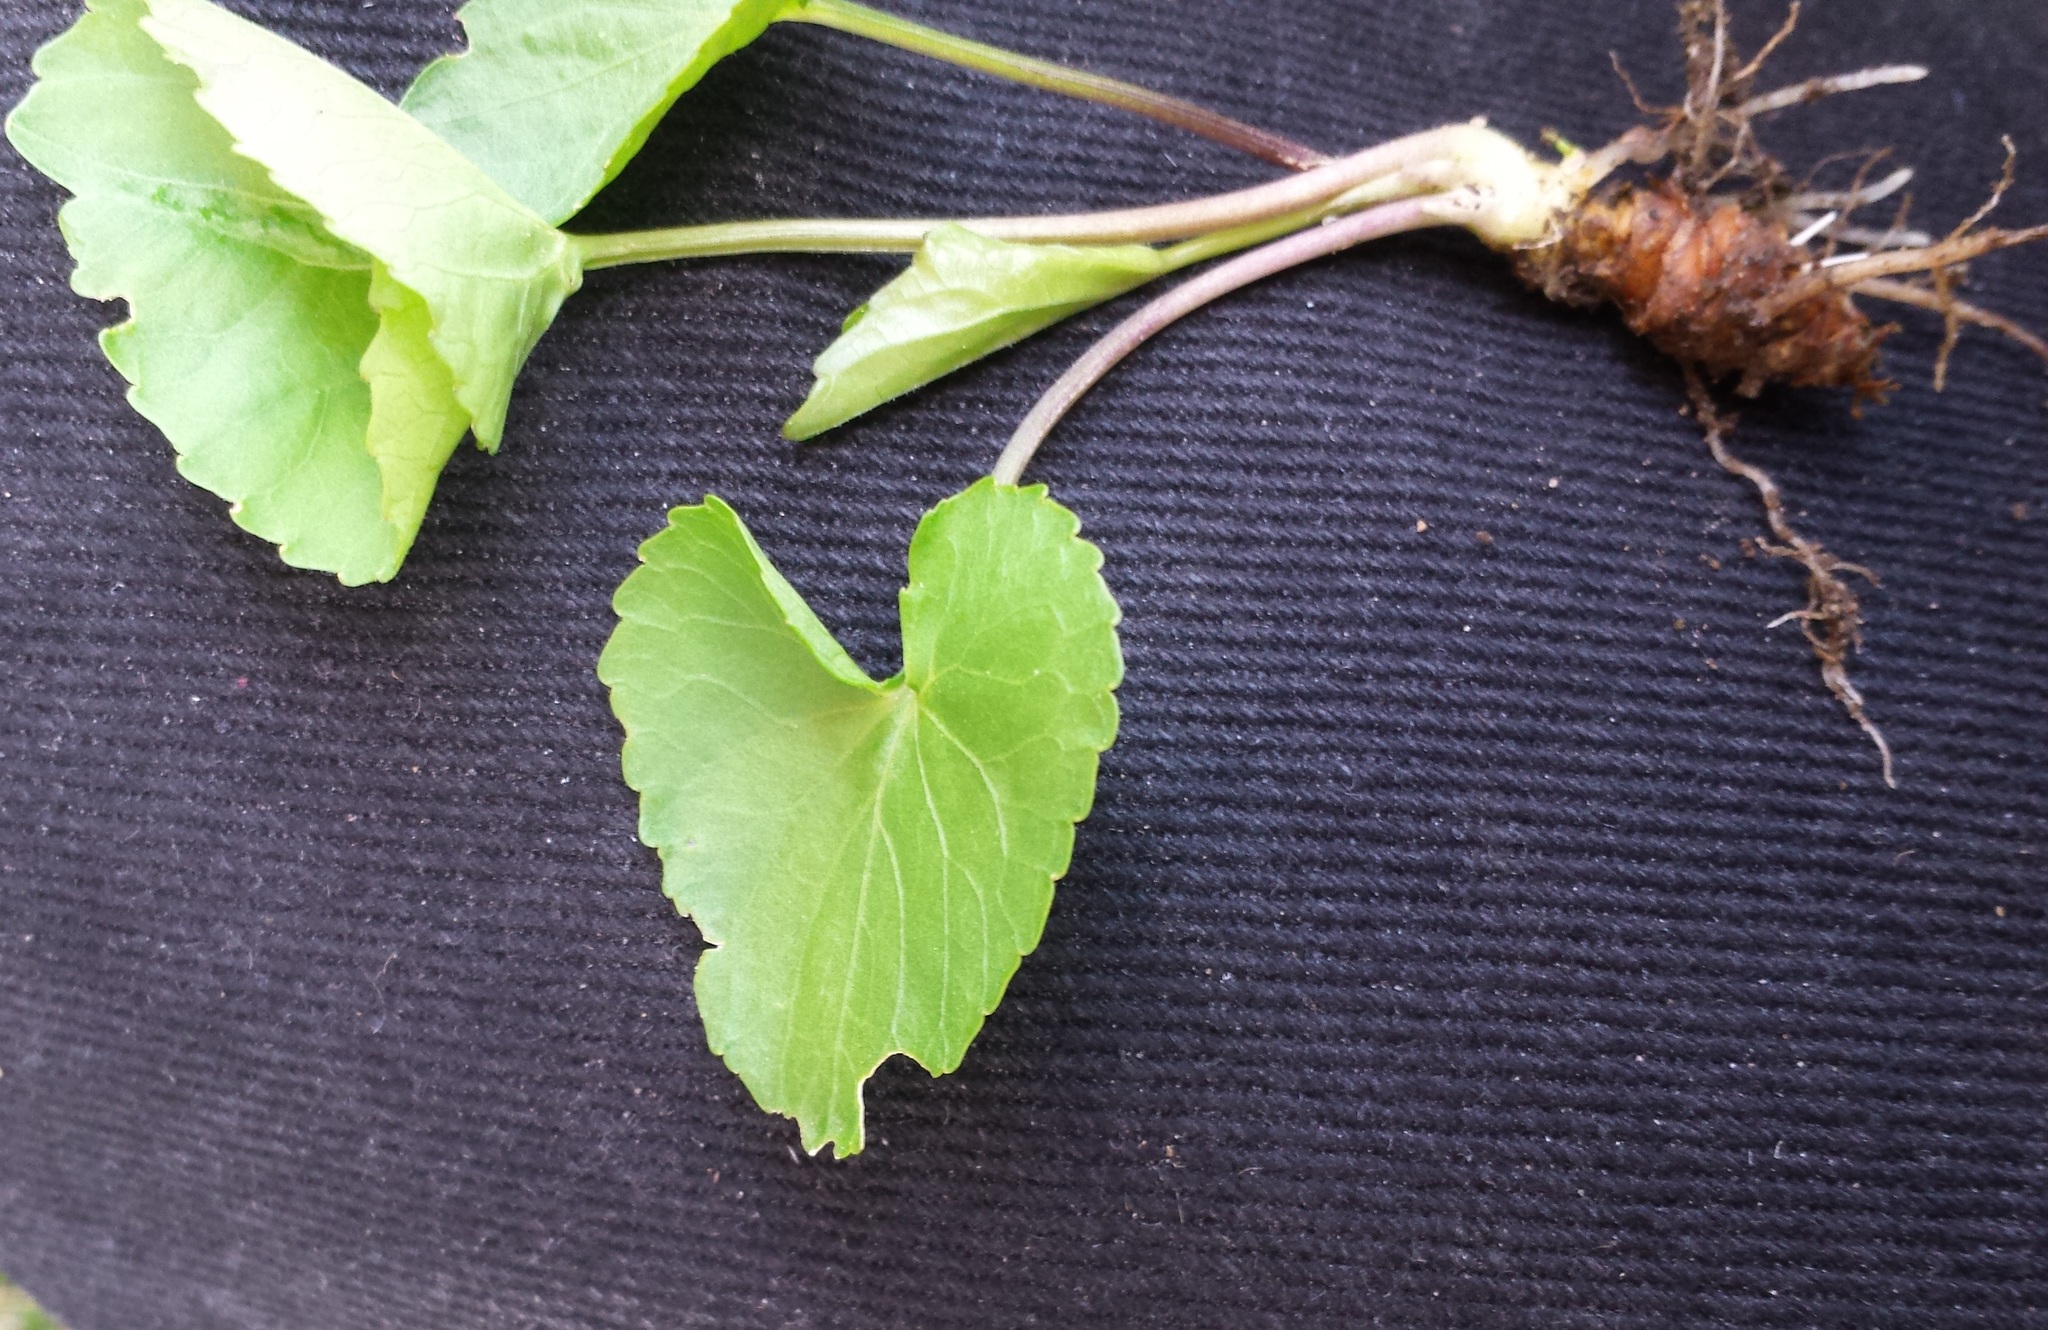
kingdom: Plantae
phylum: Tracheophyta
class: Magnoliopsida
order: Malpighiales
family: Violaceae
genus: Viola
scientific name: Viola sororia
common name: Dooryard violet
